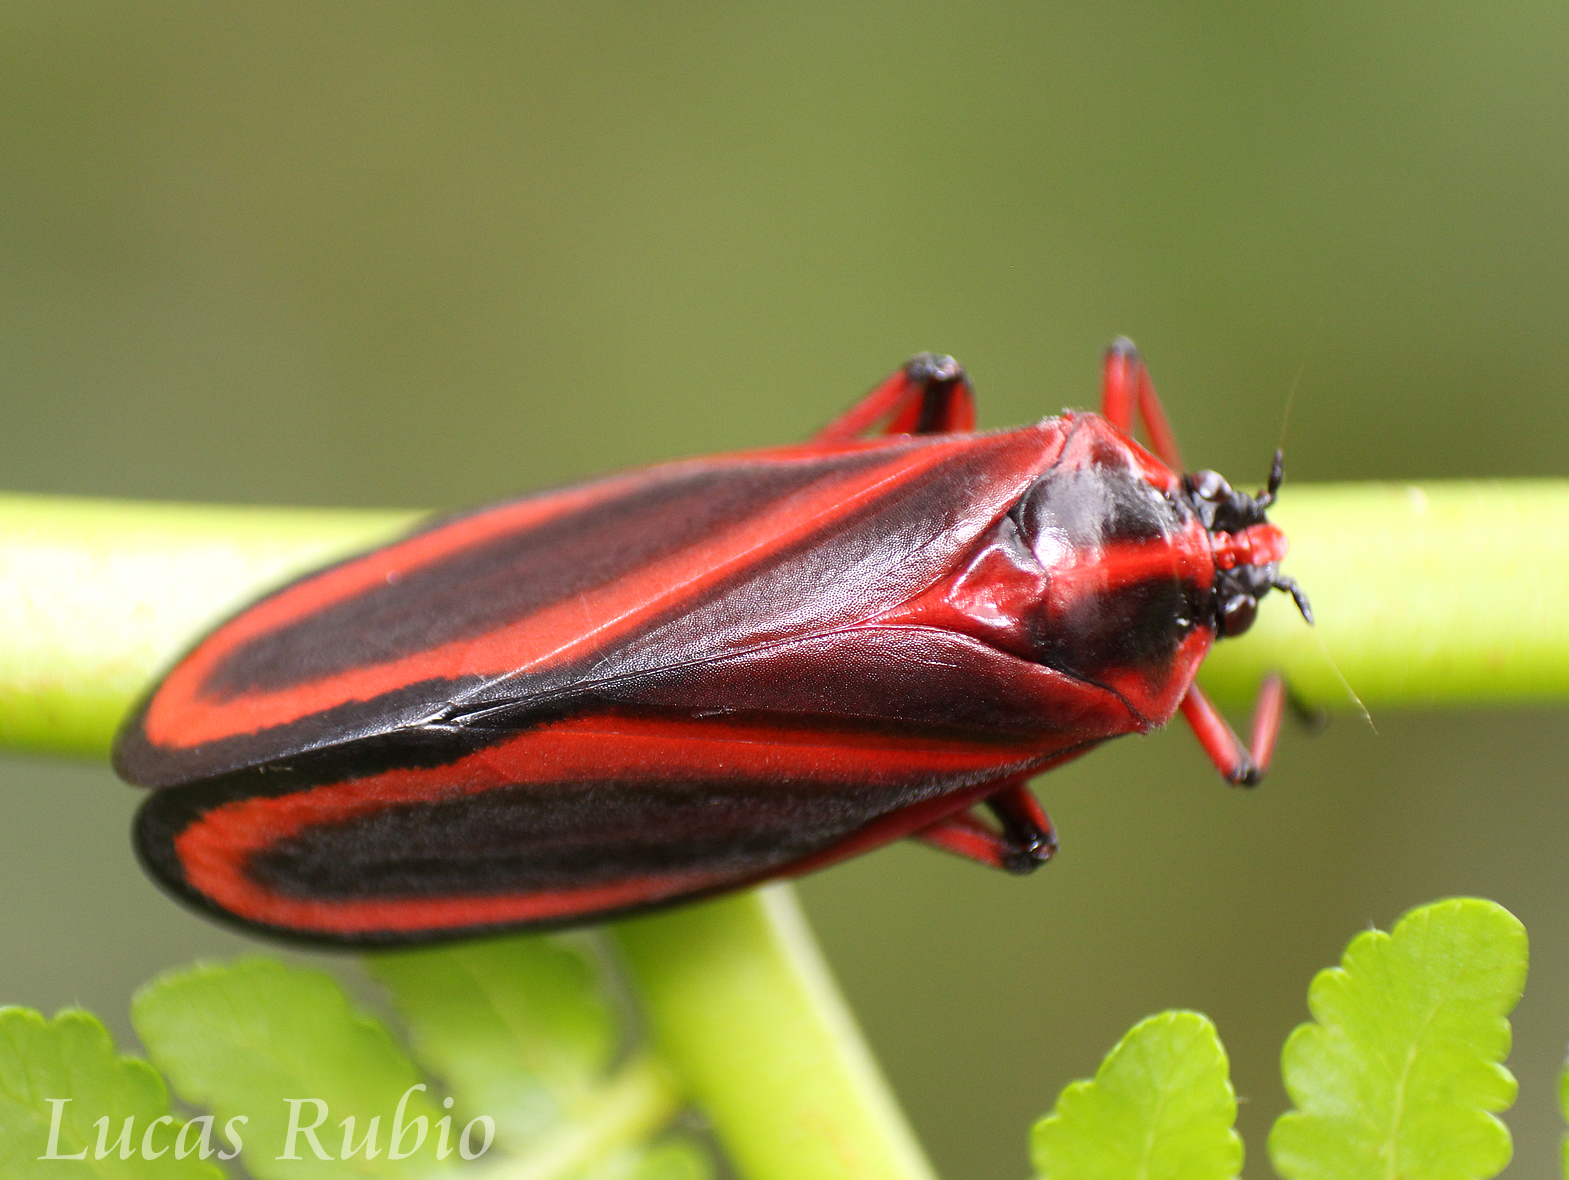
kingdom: Animalia
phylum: Arthropoda
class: Insecta
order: Hemiptera
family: Cercopidae
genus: Typeschata
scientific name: Typeschata
